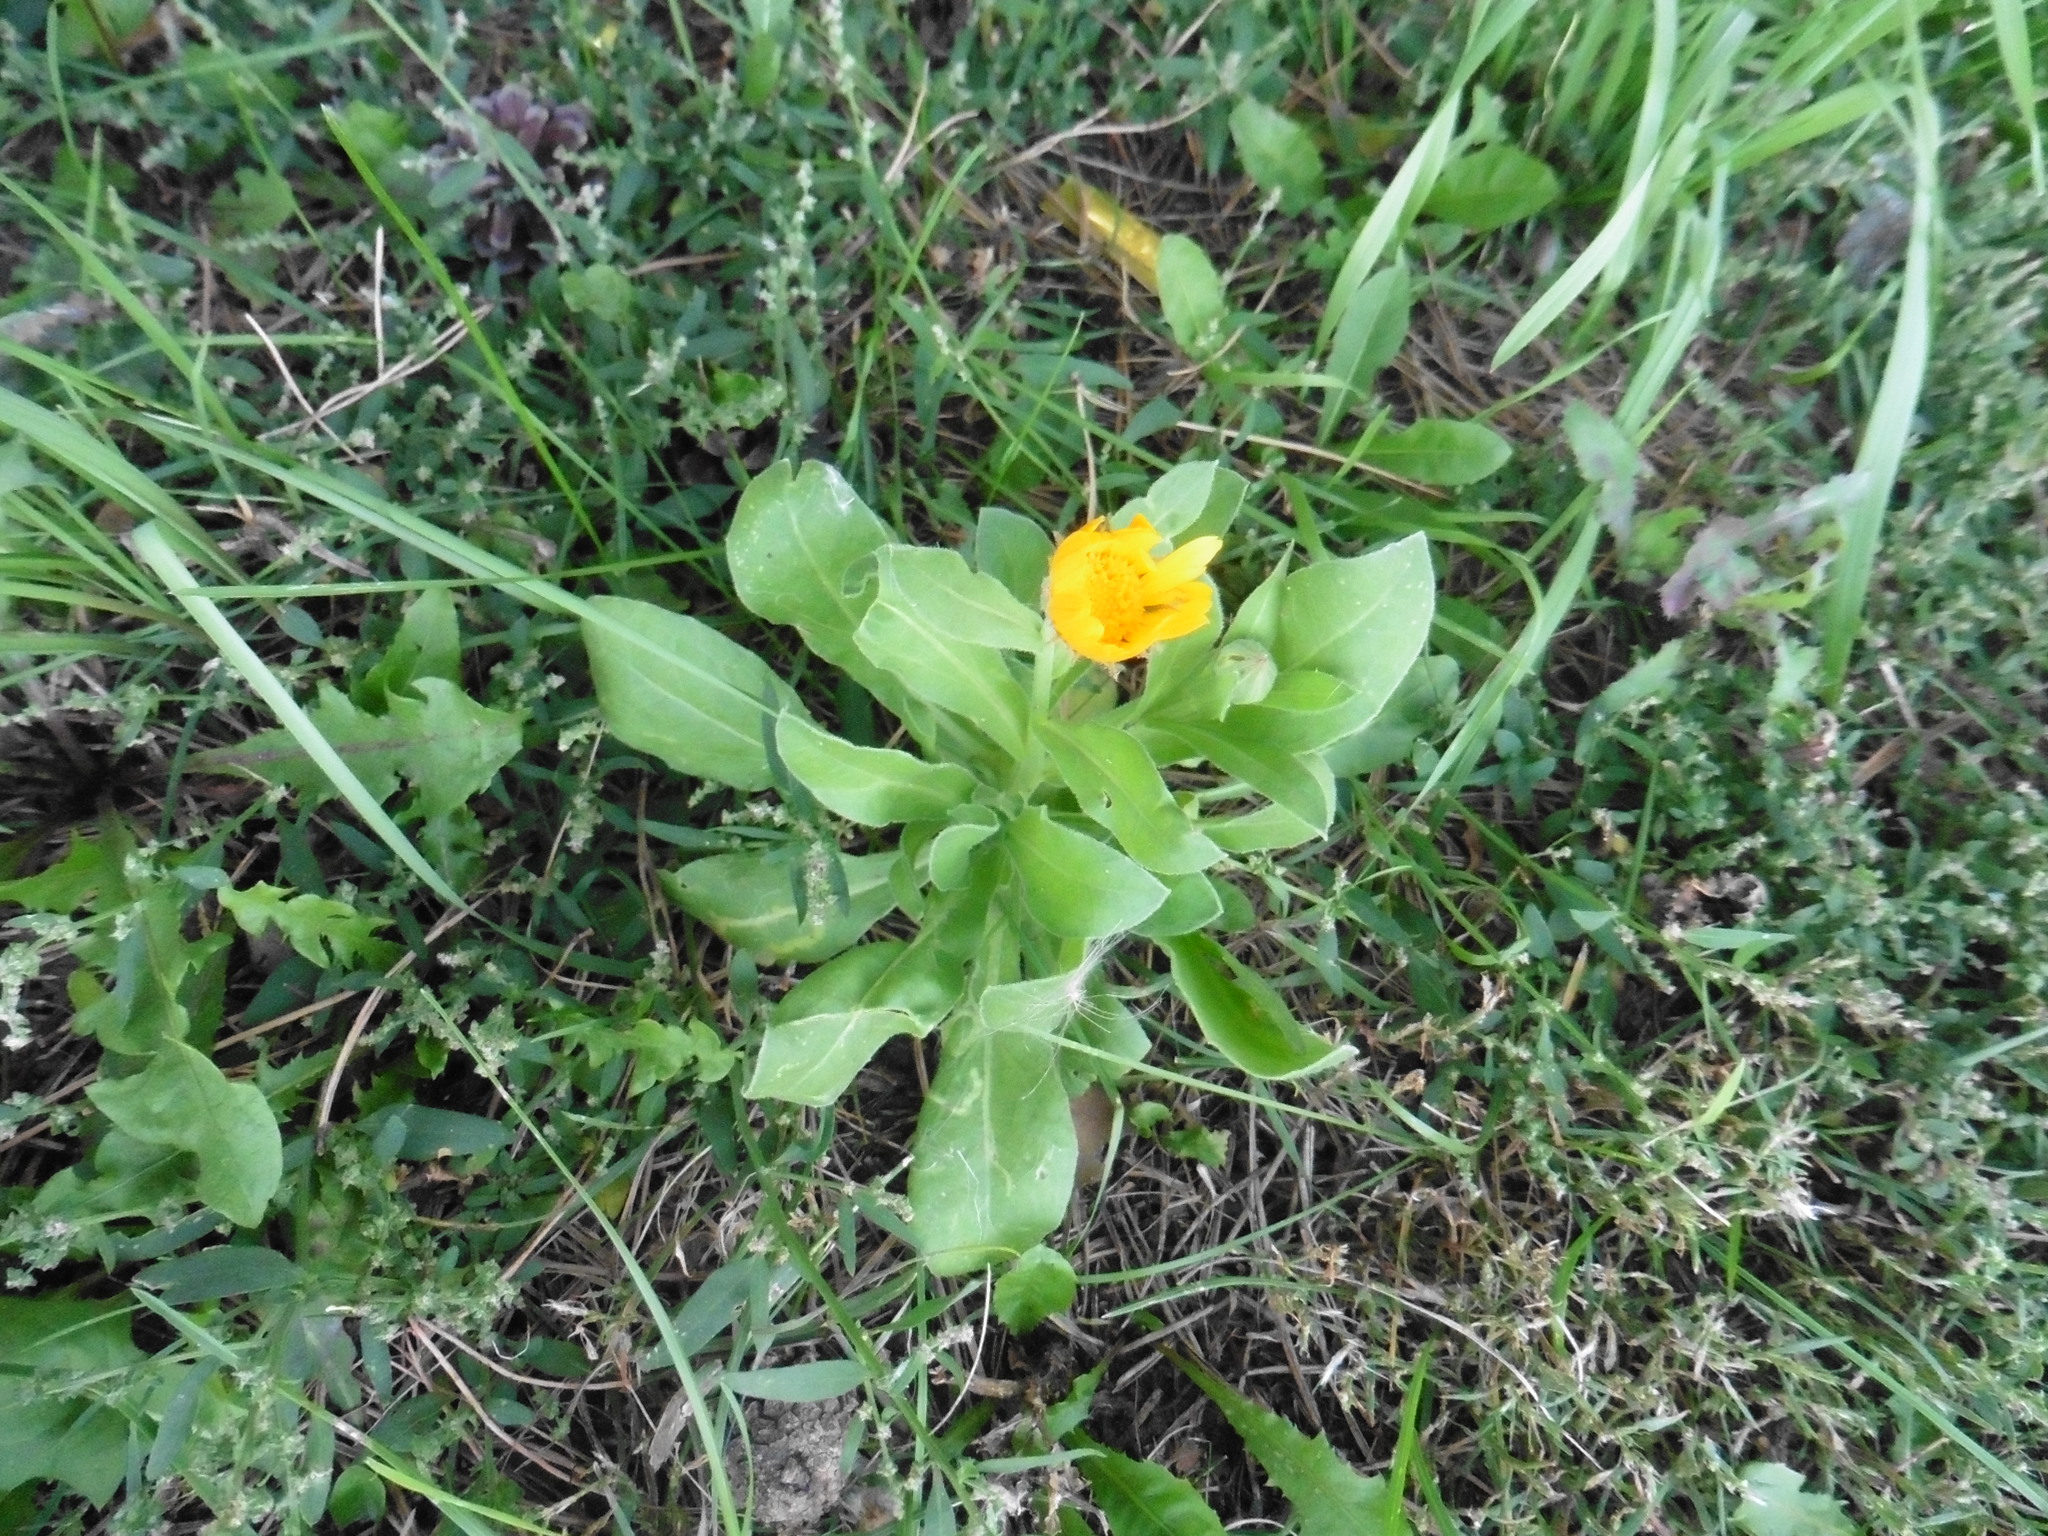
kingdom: Plantae
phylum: Tracheophyta
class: Magnoliopsida
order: Asterales
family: Asteraceae
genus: Calendula
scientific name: Calendula officinalis
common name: Pot marigold
